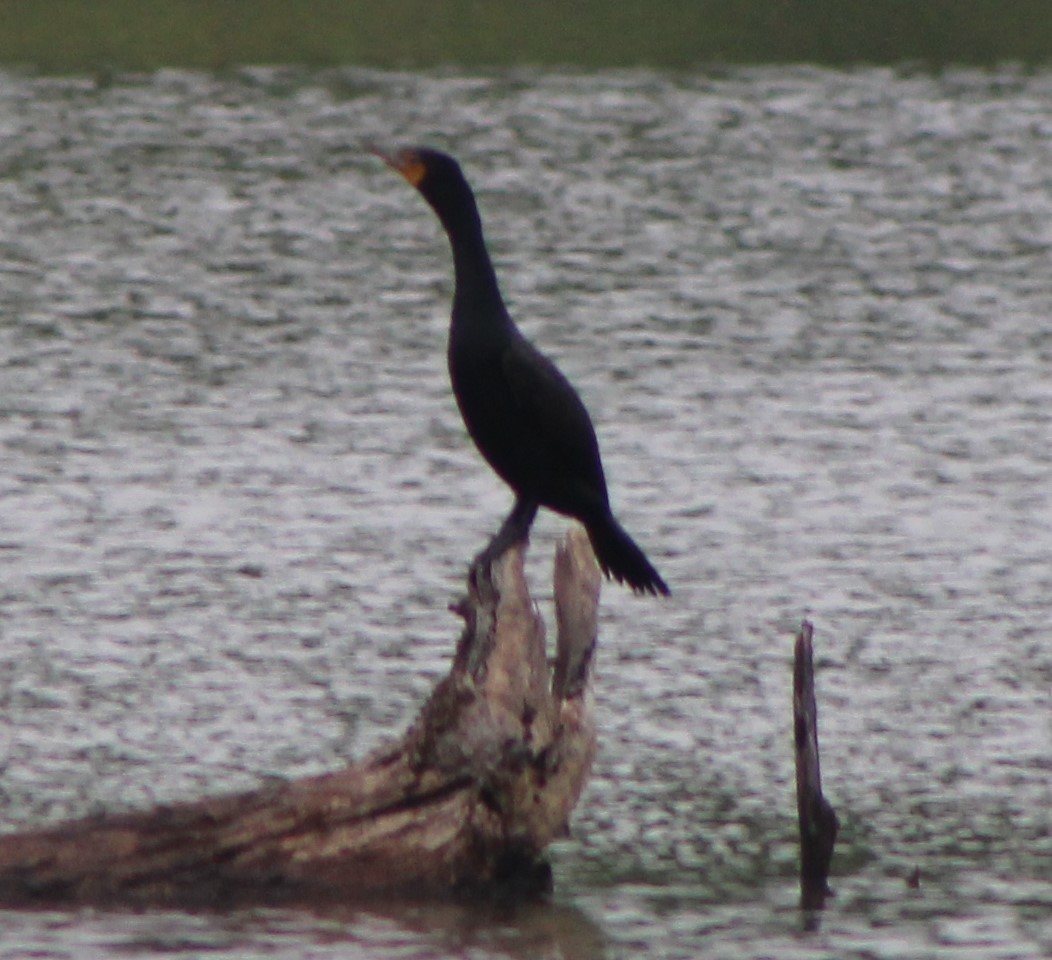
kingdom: Animalia
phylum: Chordata
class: Aves
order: Suliformes
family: Phalacrocoracidae
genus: Phalacrocorax
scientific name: Phalacrocorax auritus
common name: Double-crested cormorant
